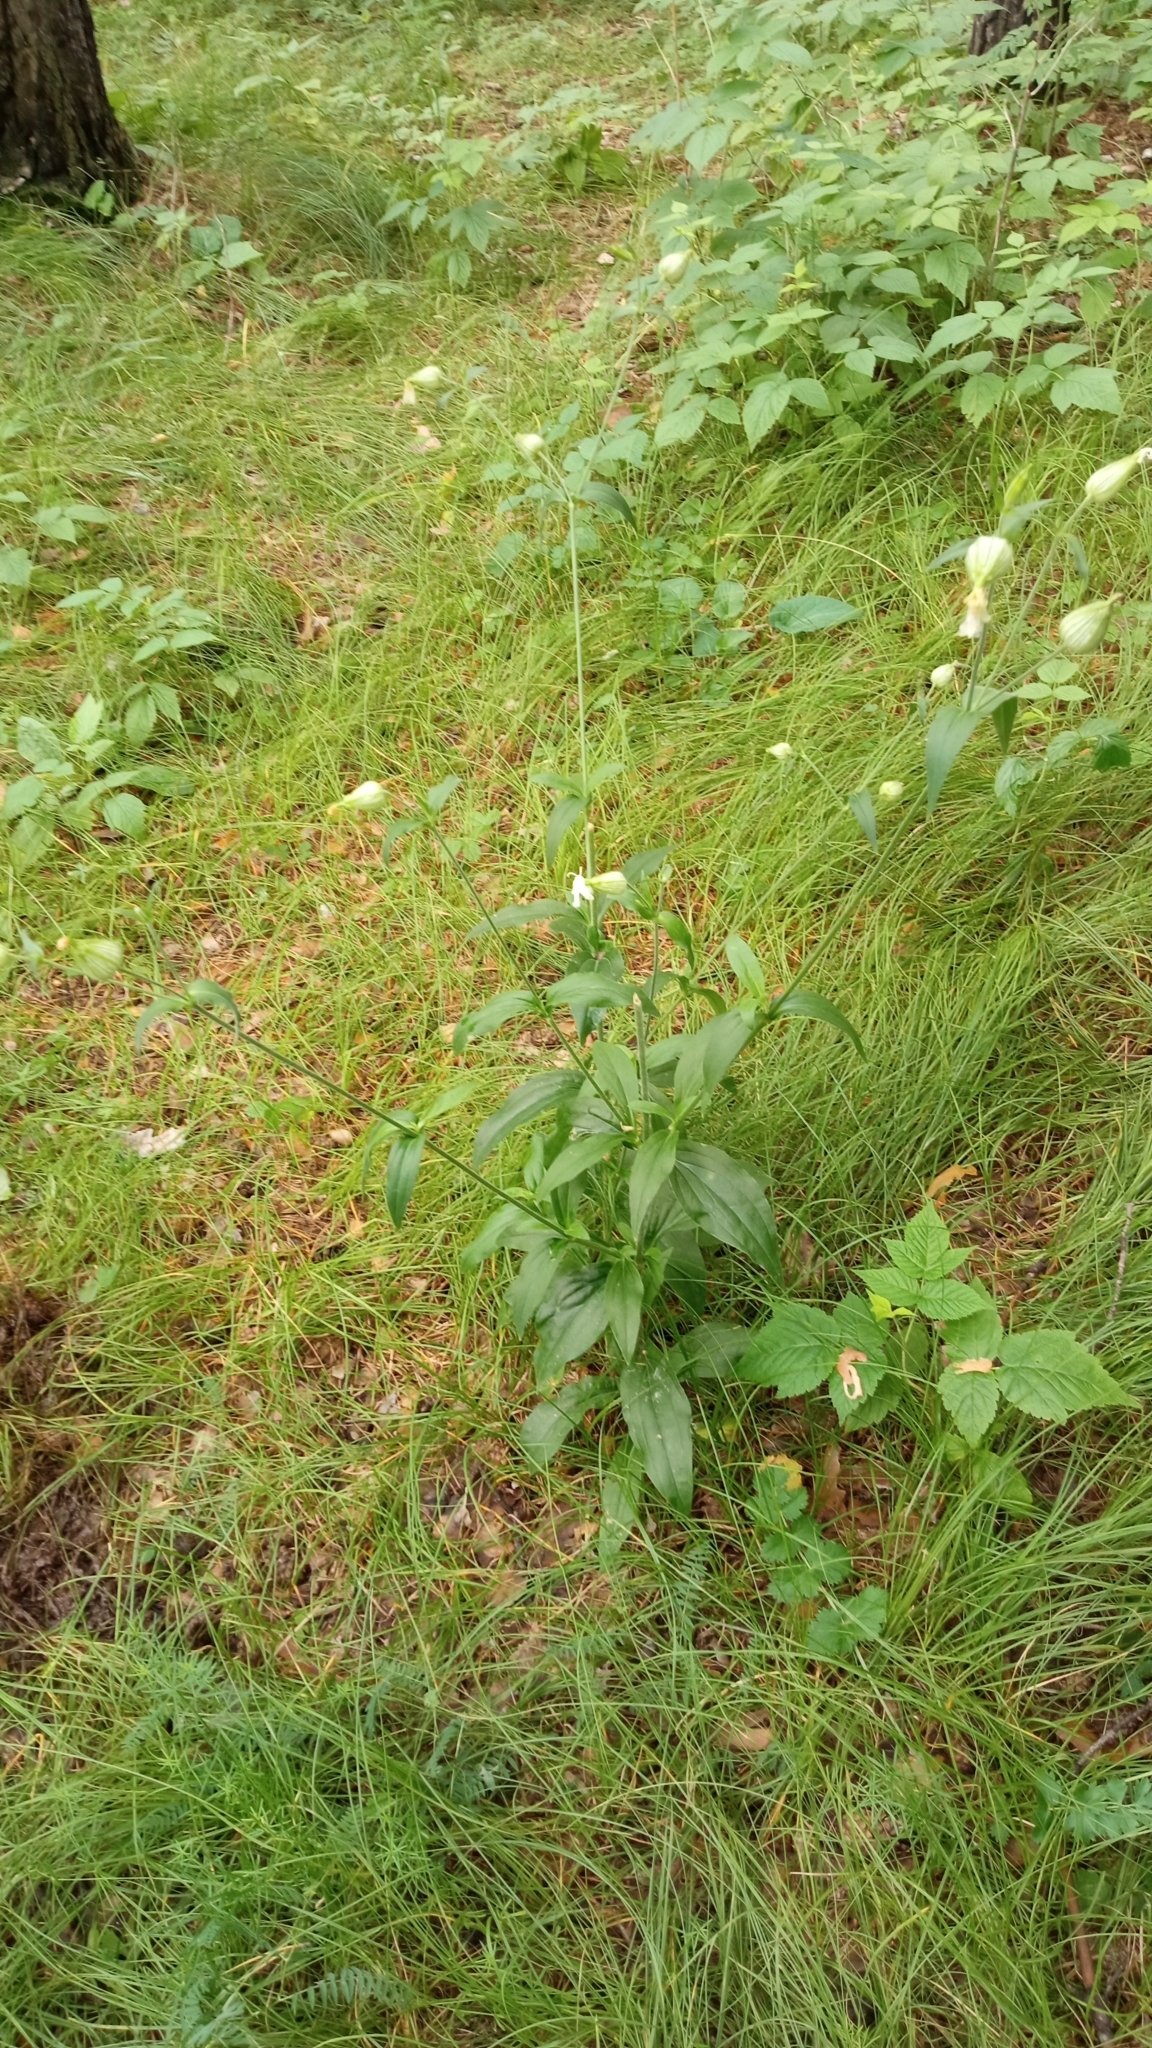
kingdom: Plantae
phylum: Tracheophyta
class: Magnoliopsida
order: Caryophyllales
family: Caryophyllaceae
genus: Silene
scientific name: Silene latifolia
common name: White campion
